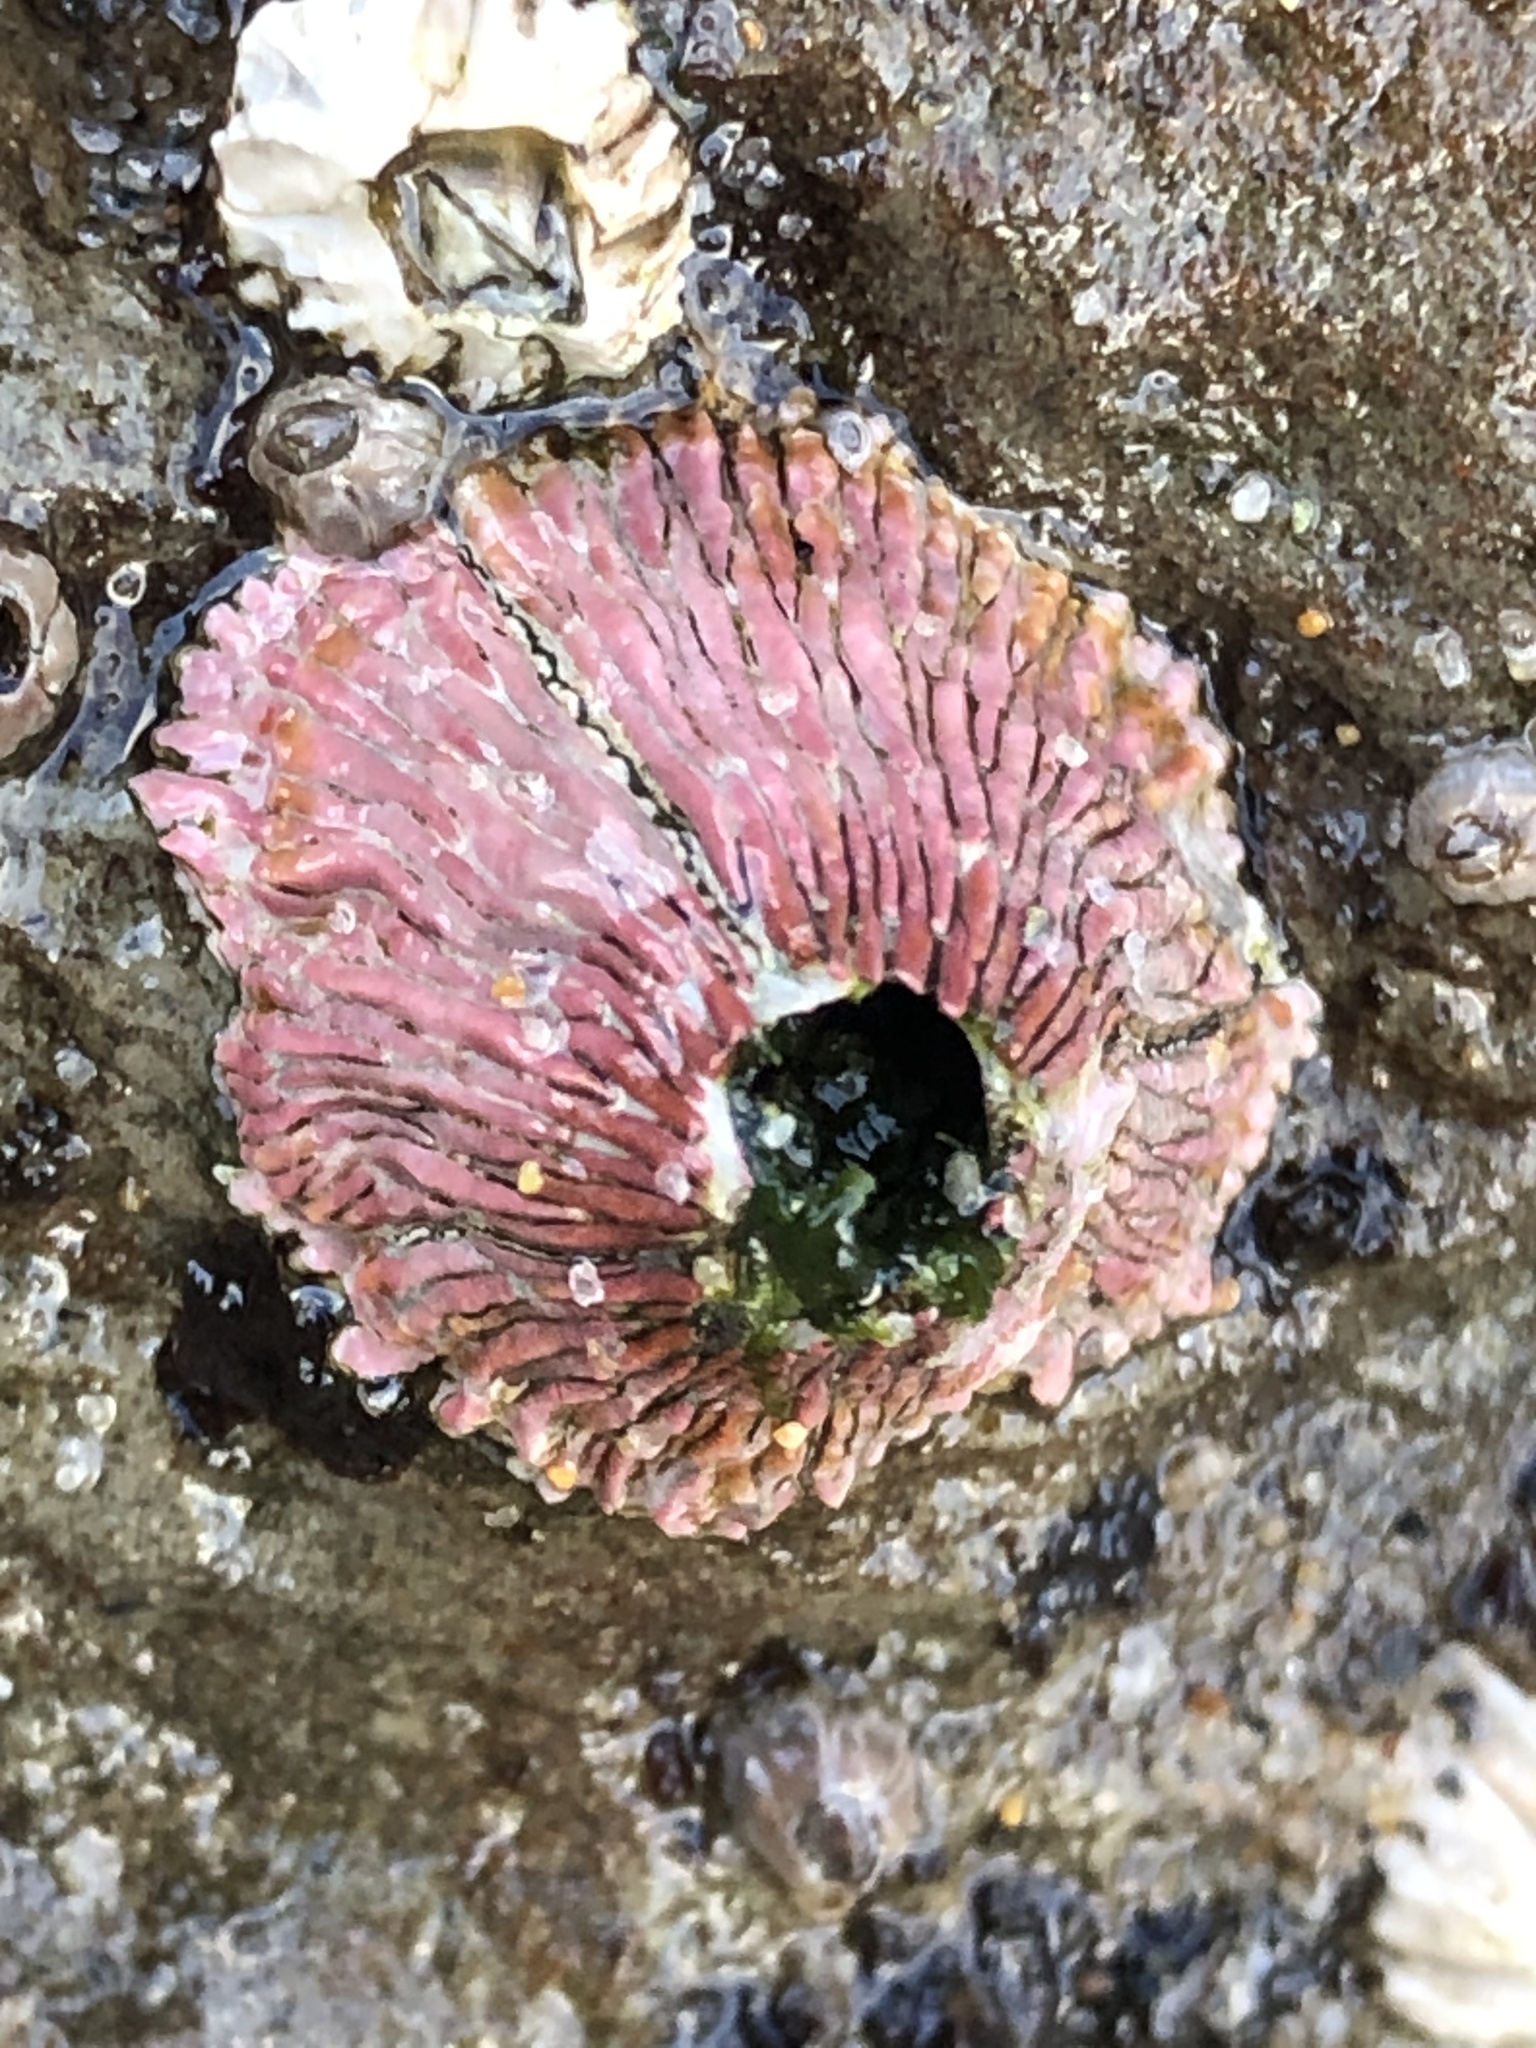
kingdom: Animalia
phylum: Arthropoda
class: Maxillopoda
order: Sessilia
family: Tetraclitidae
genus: Tetraclita
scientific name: Tetraclita rubescens
